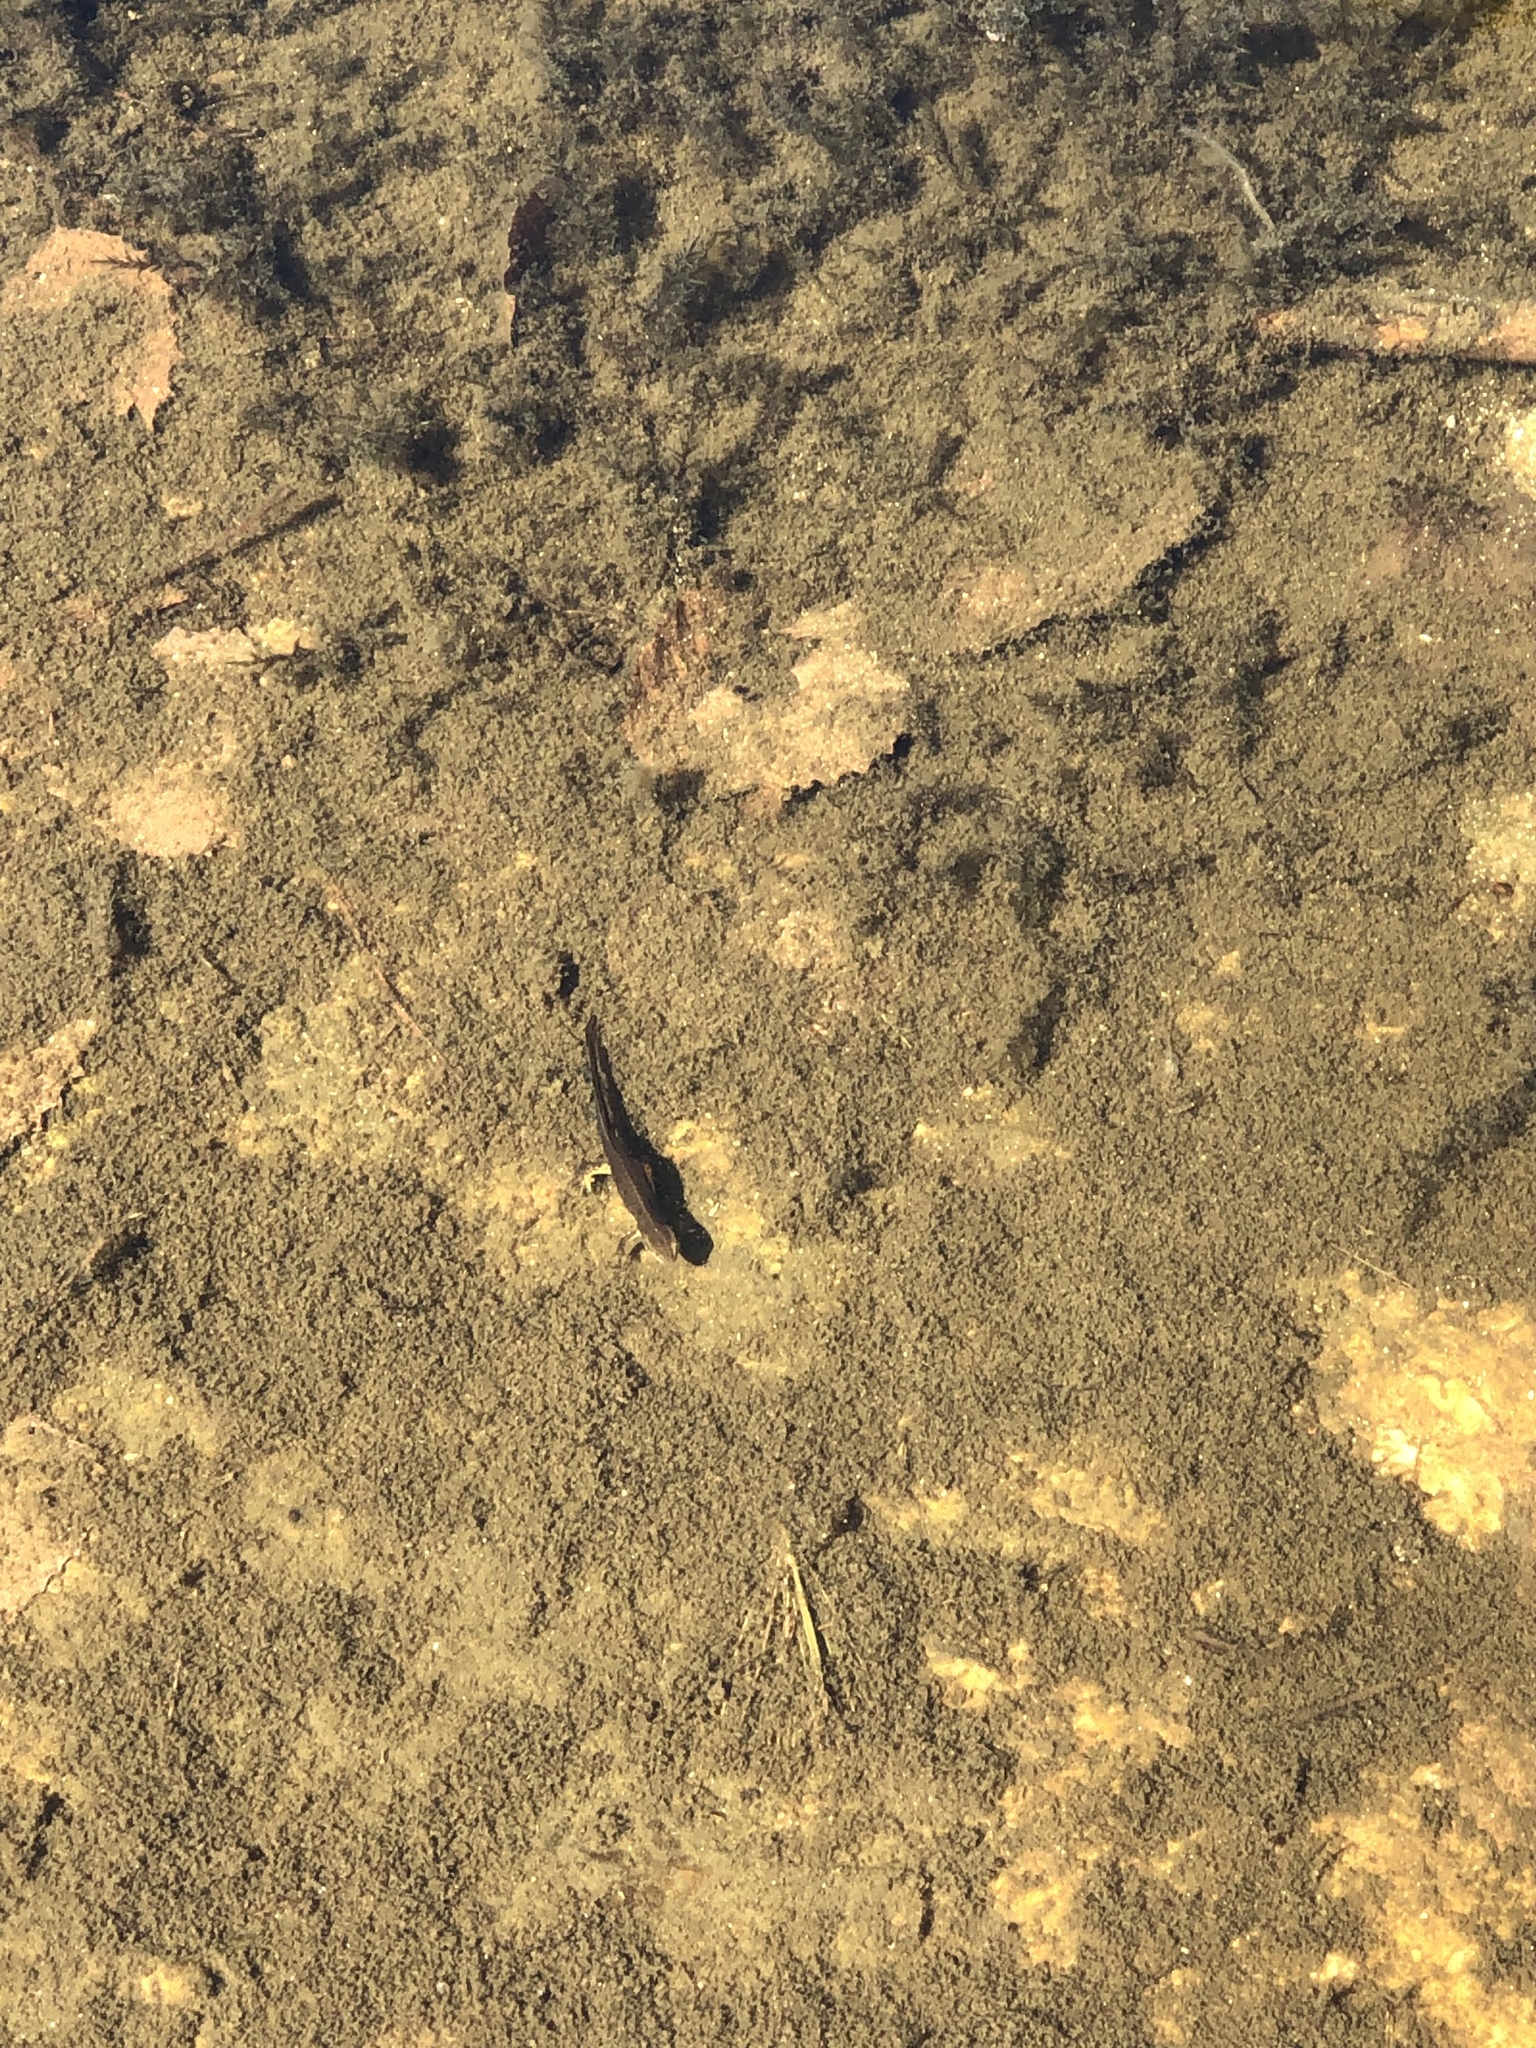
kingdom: Animalia
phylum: Chordata
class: Amphibia
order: Caudata
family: Salamandridae
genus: Notophthalmus
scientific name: Notophthalmus viridescens
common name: Eastern newt
